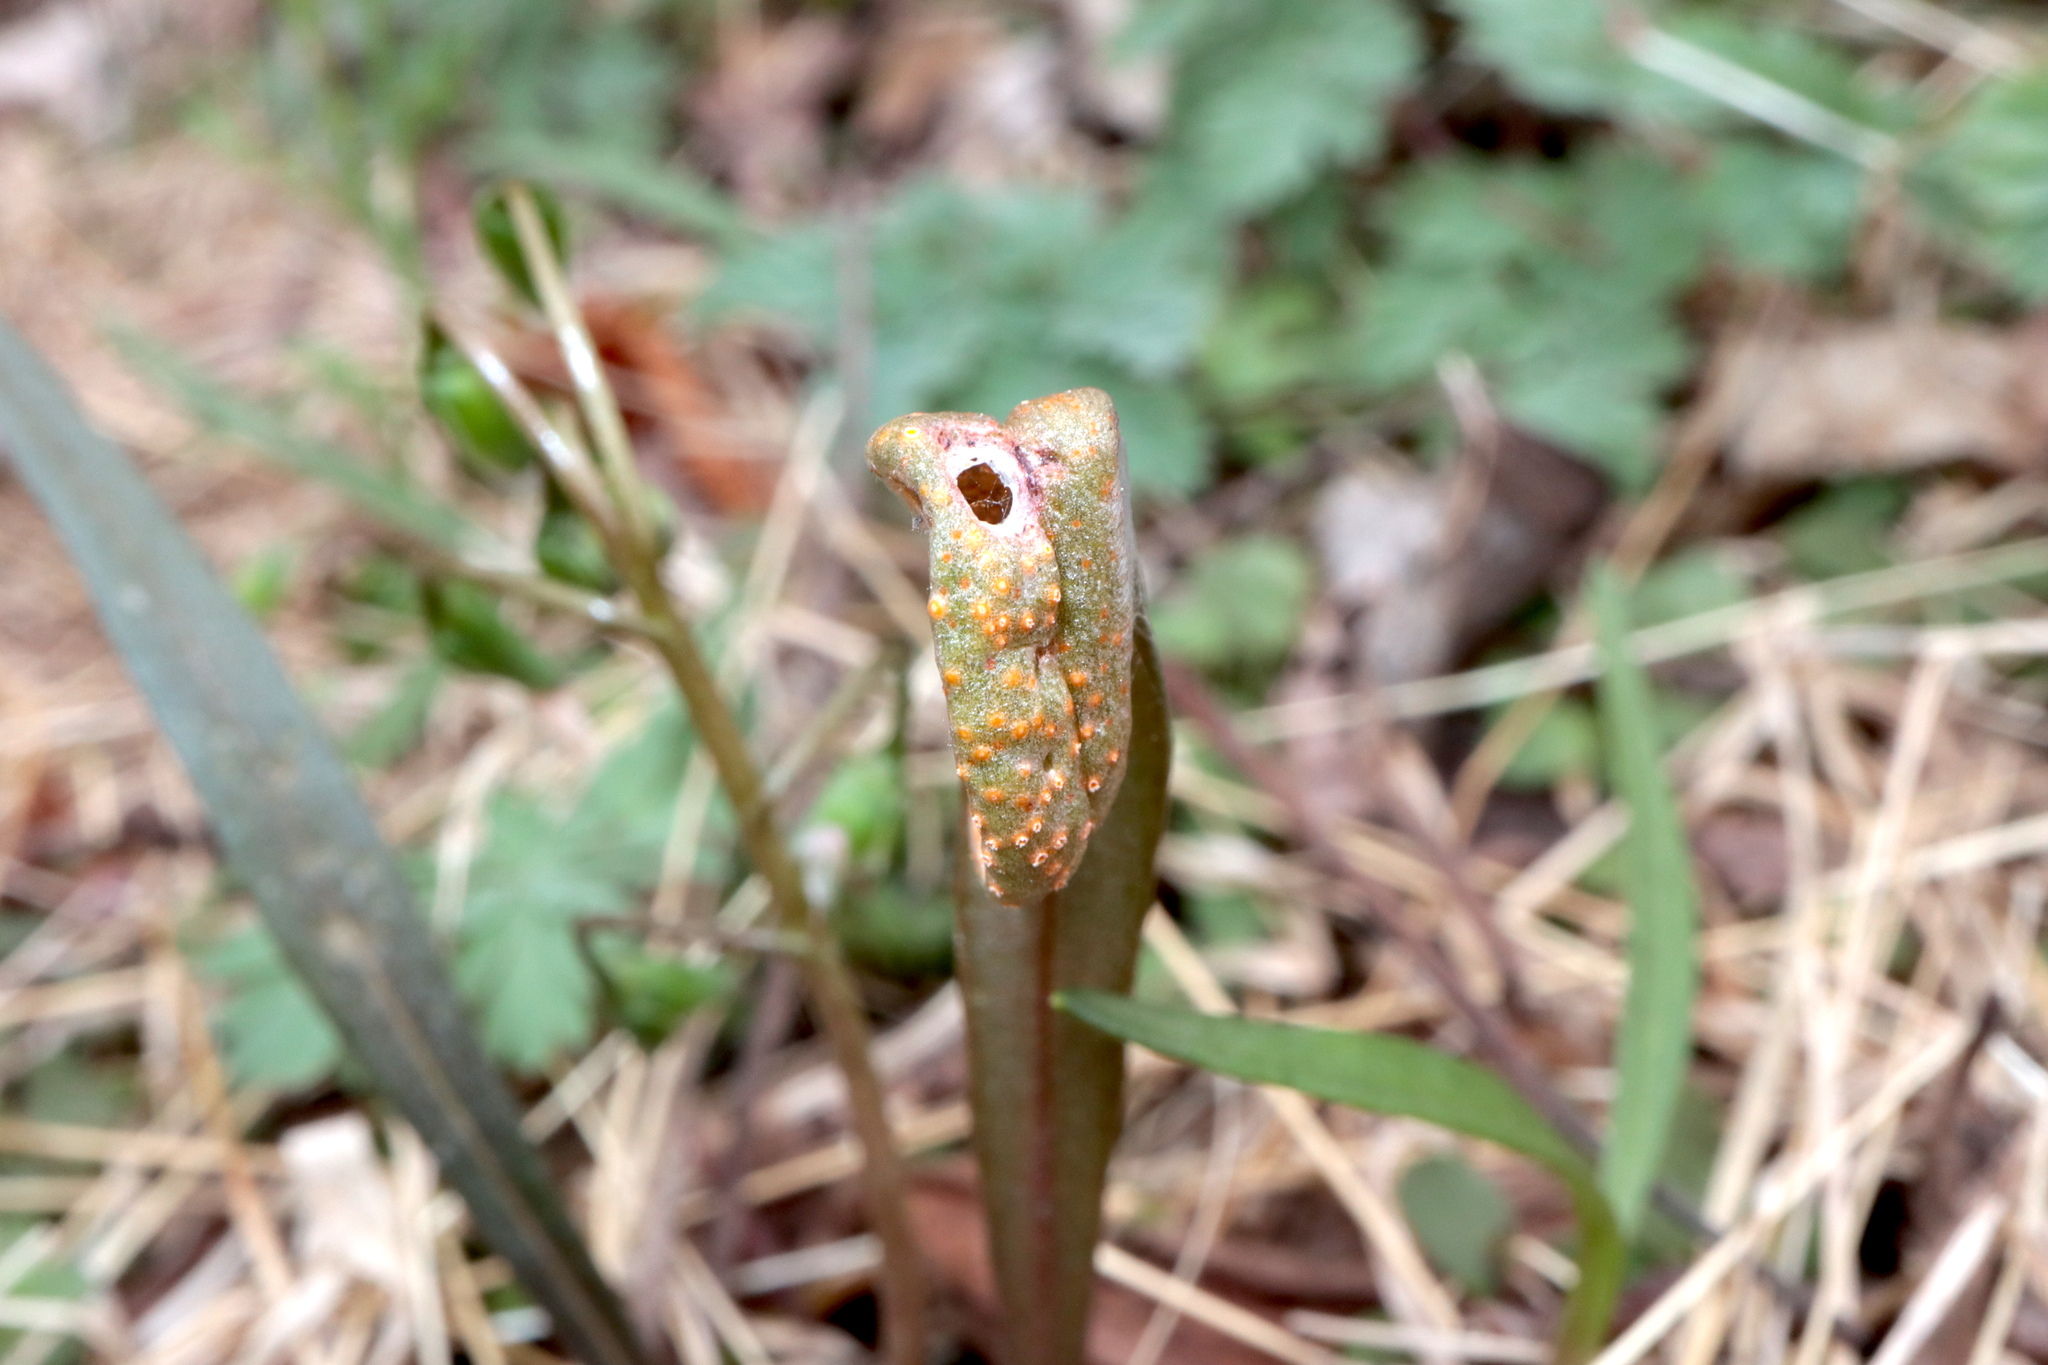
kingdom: Fungi
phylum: Basidiomycota
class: Pucciniomycetes
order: Pucciniales
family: Pucciniaceae
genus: Puccinia
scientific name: Puccinia mariae-wilsoniae
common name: Spring beauty rust
